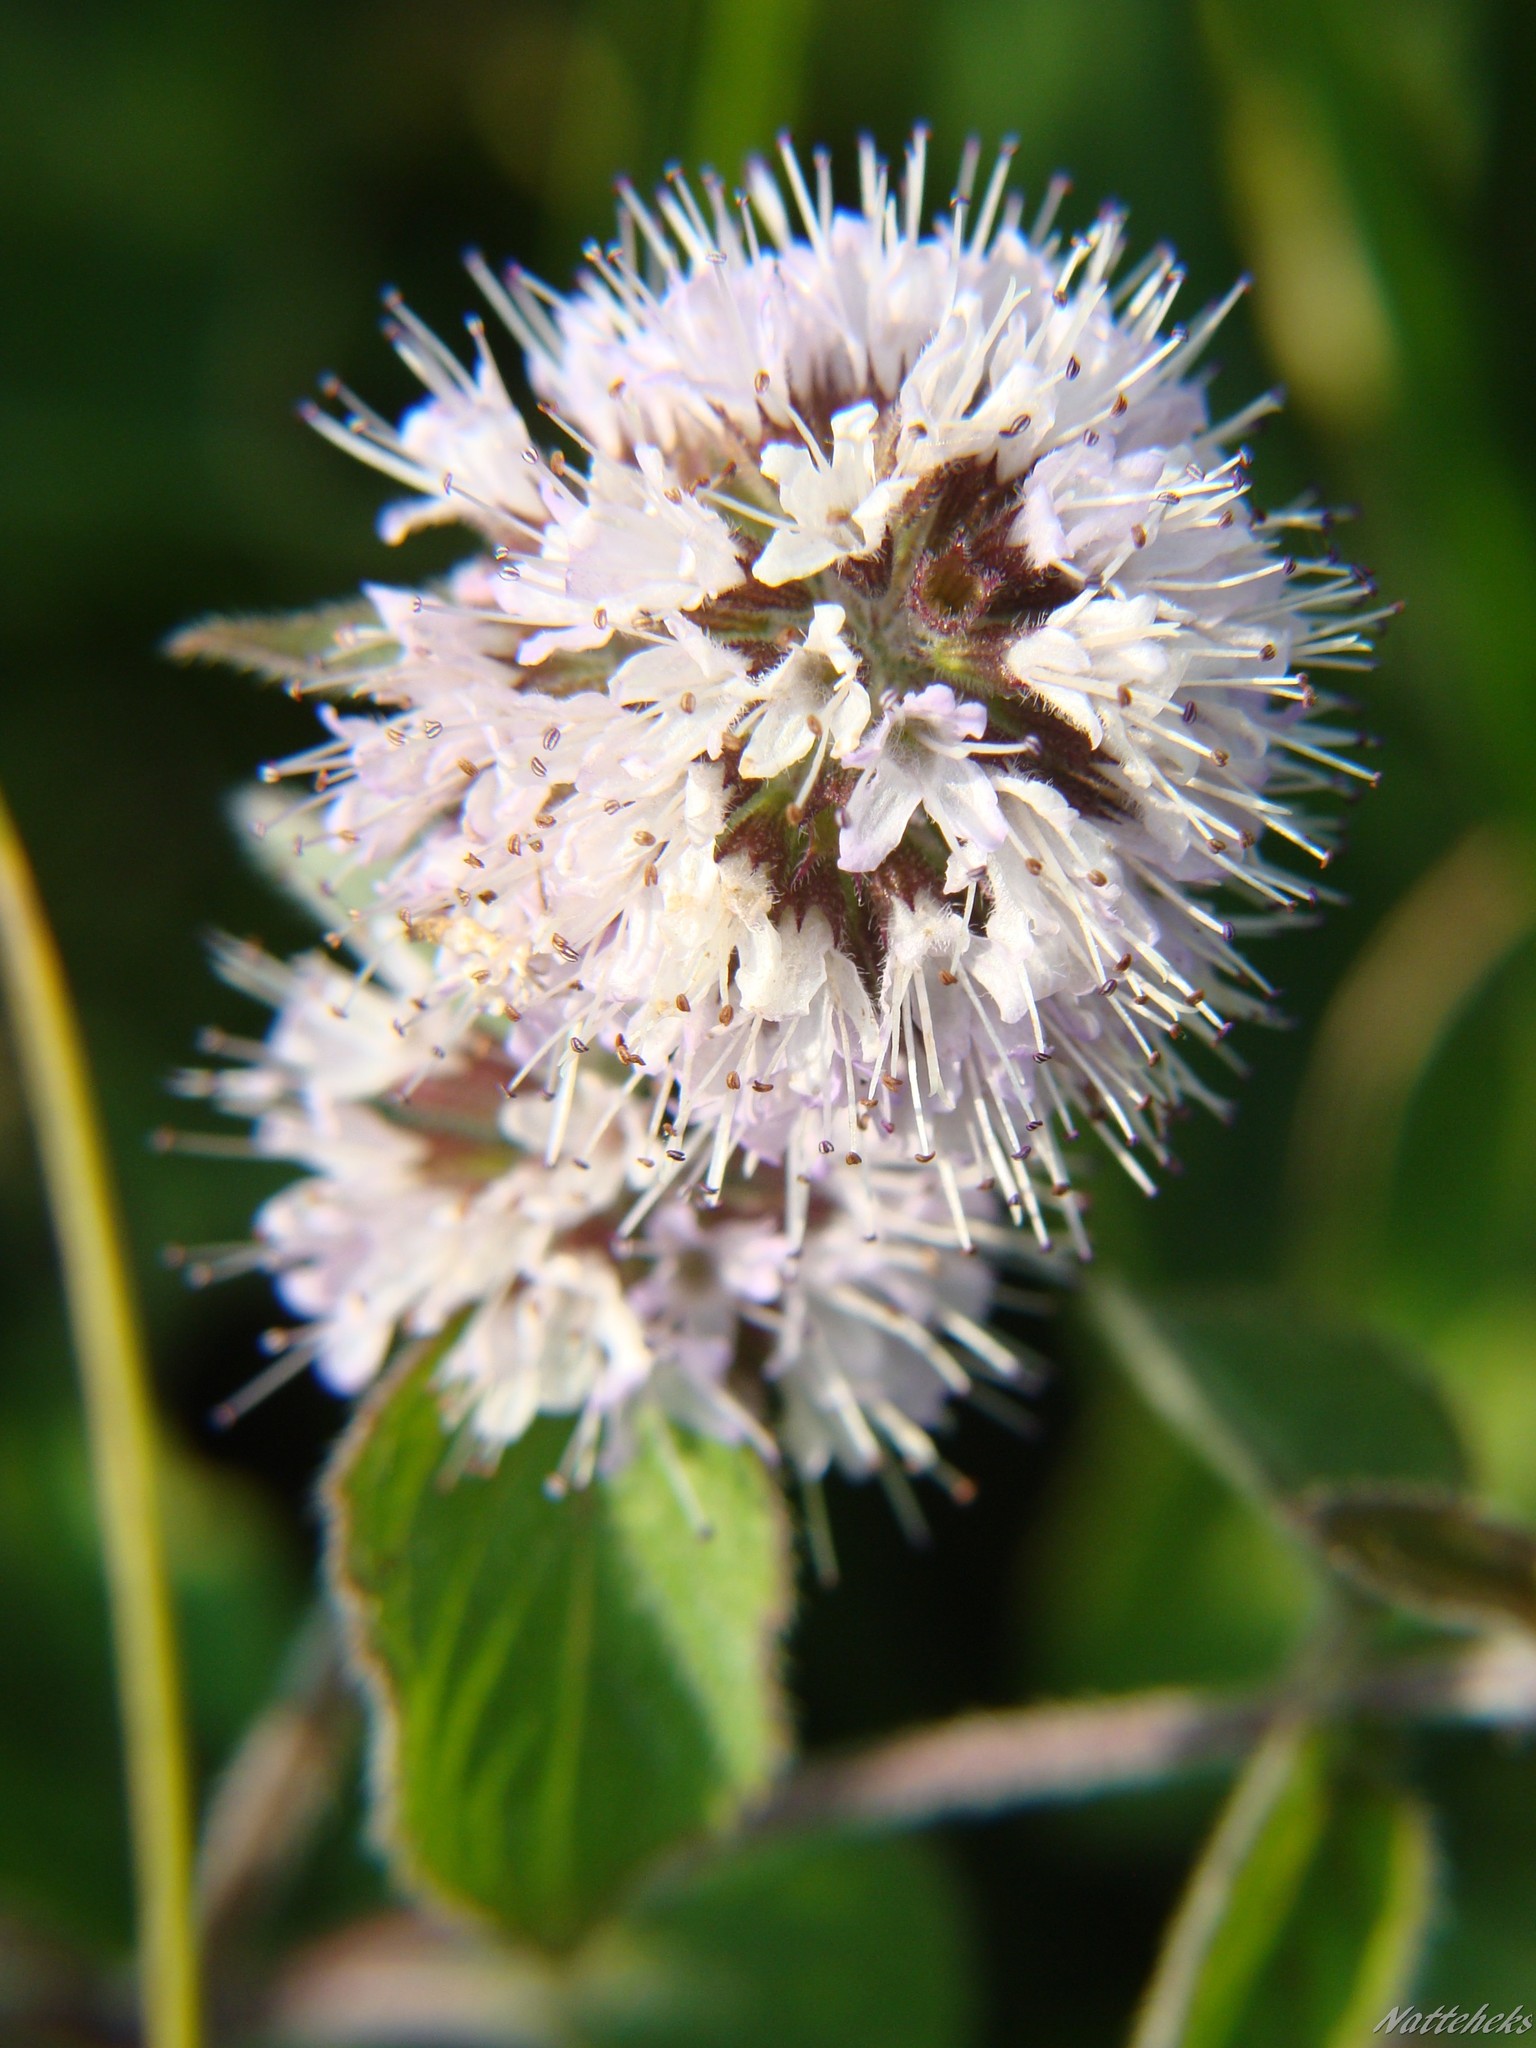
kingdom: Plantae
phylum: Tracheophyta
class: Magnoliopsida
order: Lamiales
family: Lamiaceae
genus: Mentha
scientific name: Mentha aquatica
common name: Water mint
